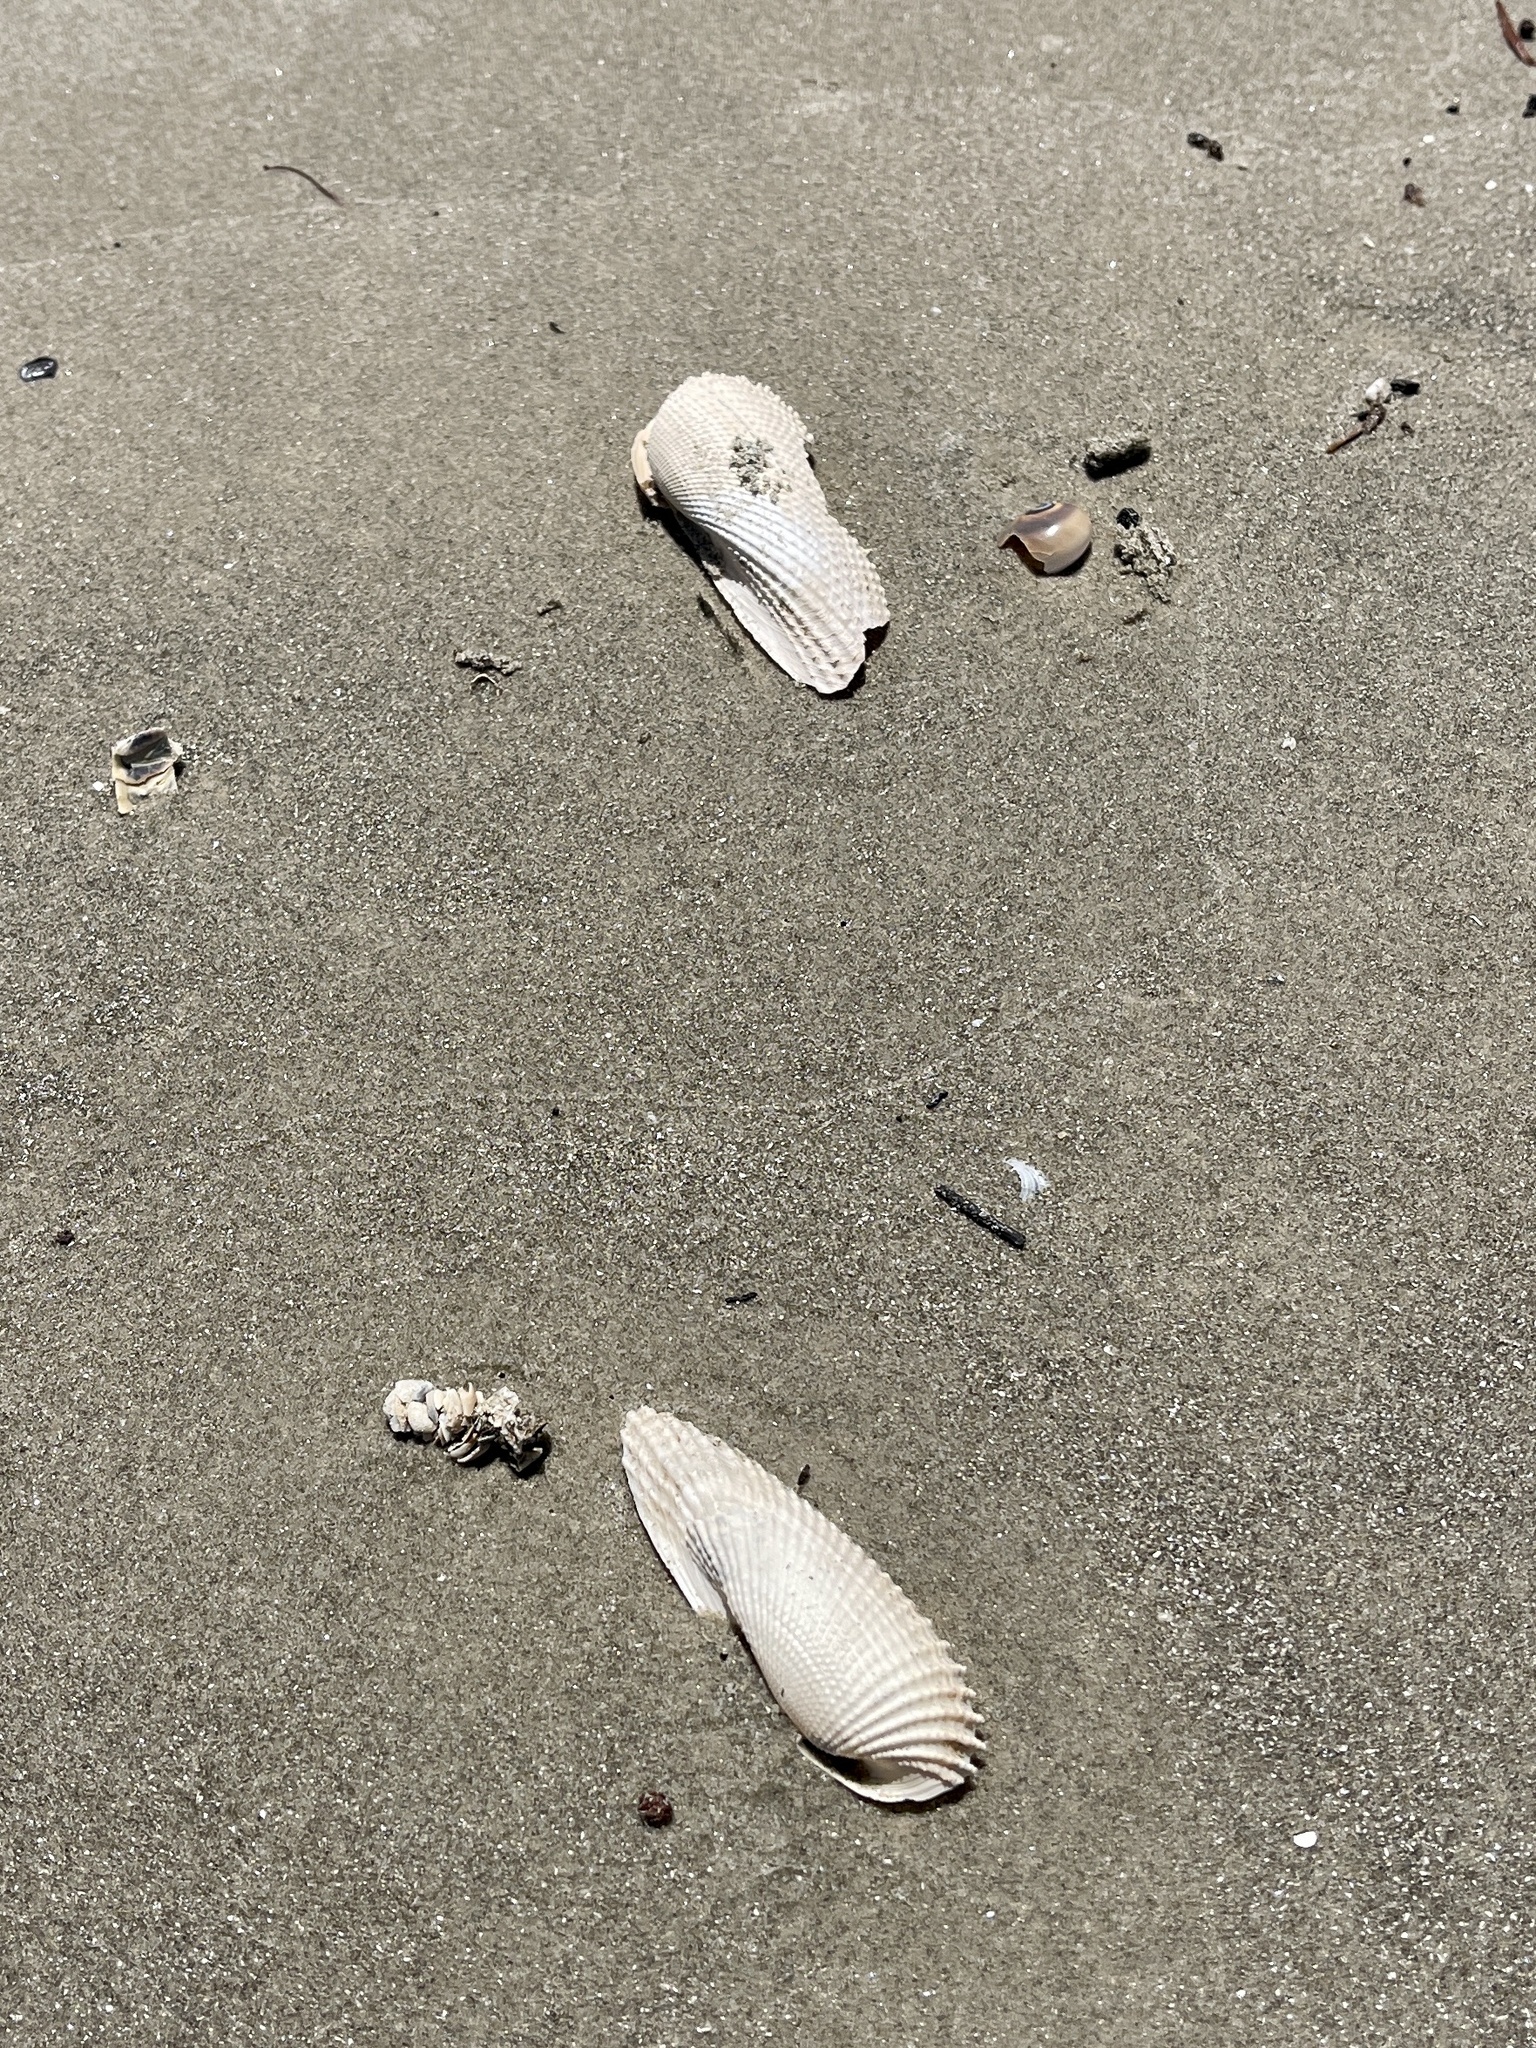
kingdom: Animalia
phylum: Mollusca
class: Bivalvia
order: Myida
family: Pholadidae
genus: Cyrtopleura
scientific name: Cyrtopleura costata
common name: Angel wing
